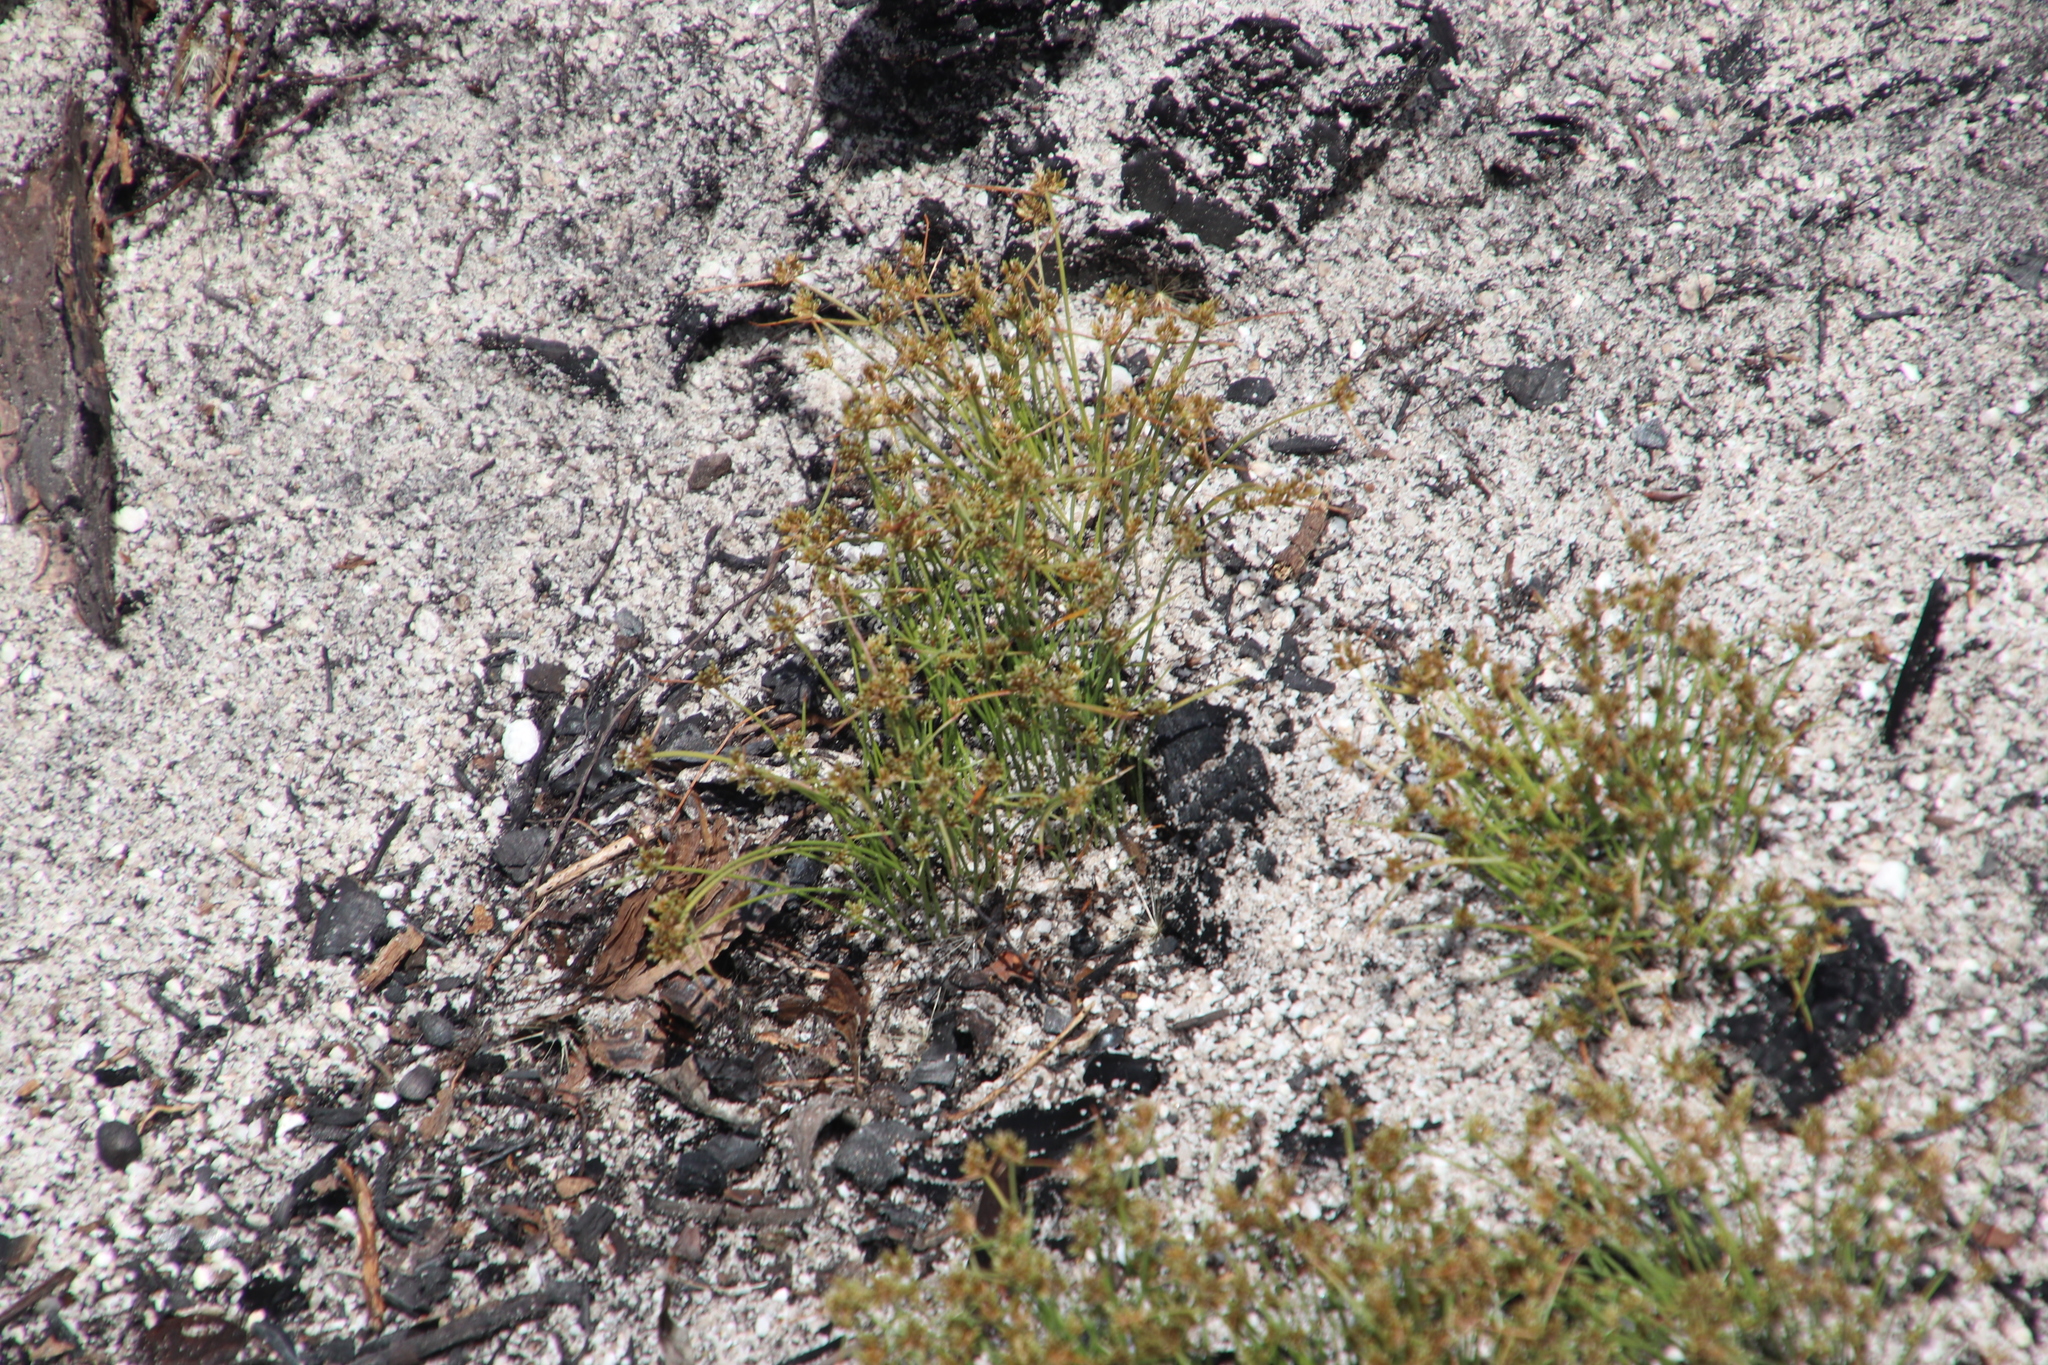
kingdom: Plantae
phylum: Tracheophyta
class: Liliopsida
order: Poales
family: Cyperaceae
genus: Isolepis
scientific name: Isolepis marginata
